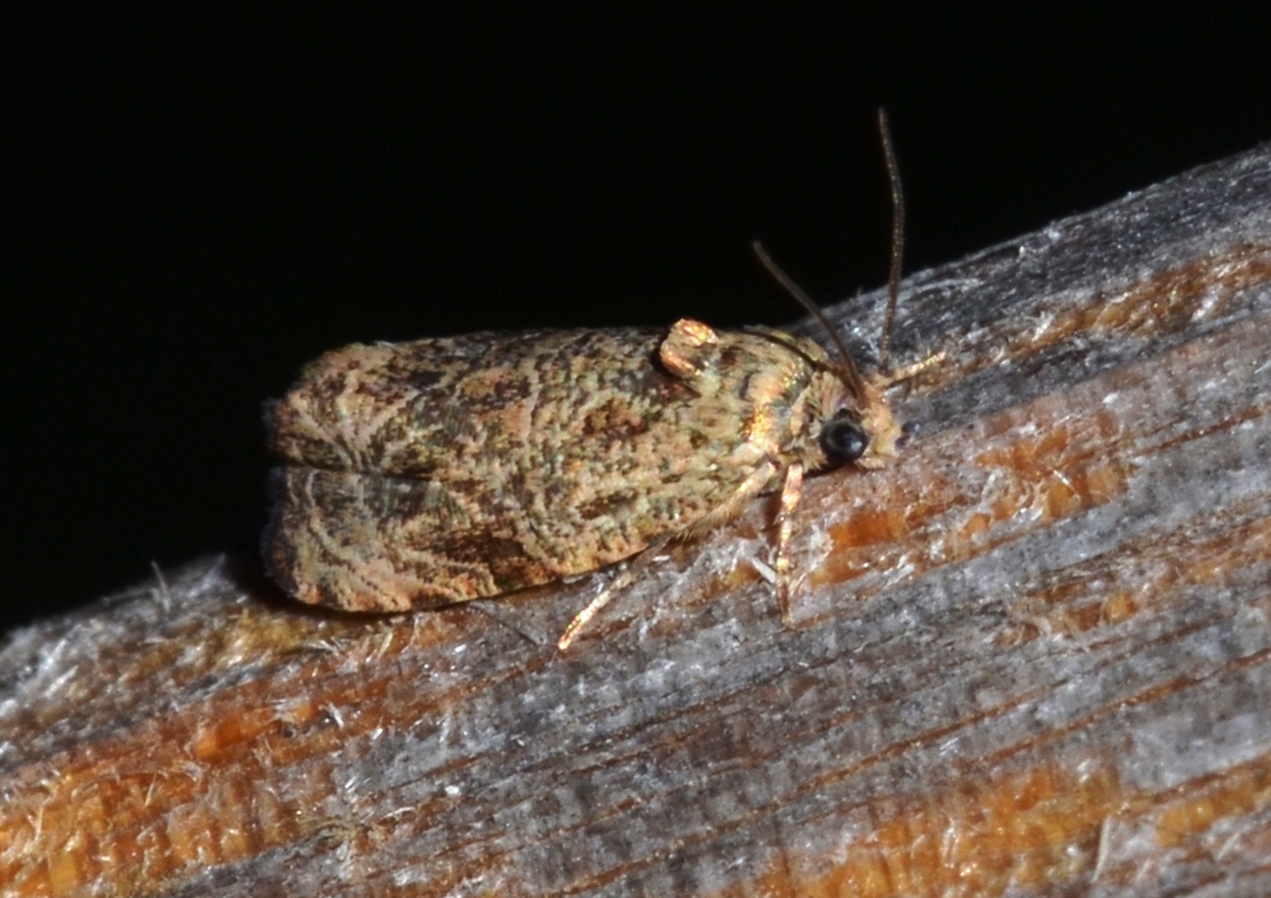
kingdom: Animalia
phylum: Arthropoda
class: Insecta
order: Lepidoptera
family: Tortricidae
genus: Olethreutes
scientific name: Olethreutes furfuranum
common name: Woolly-backed moth
